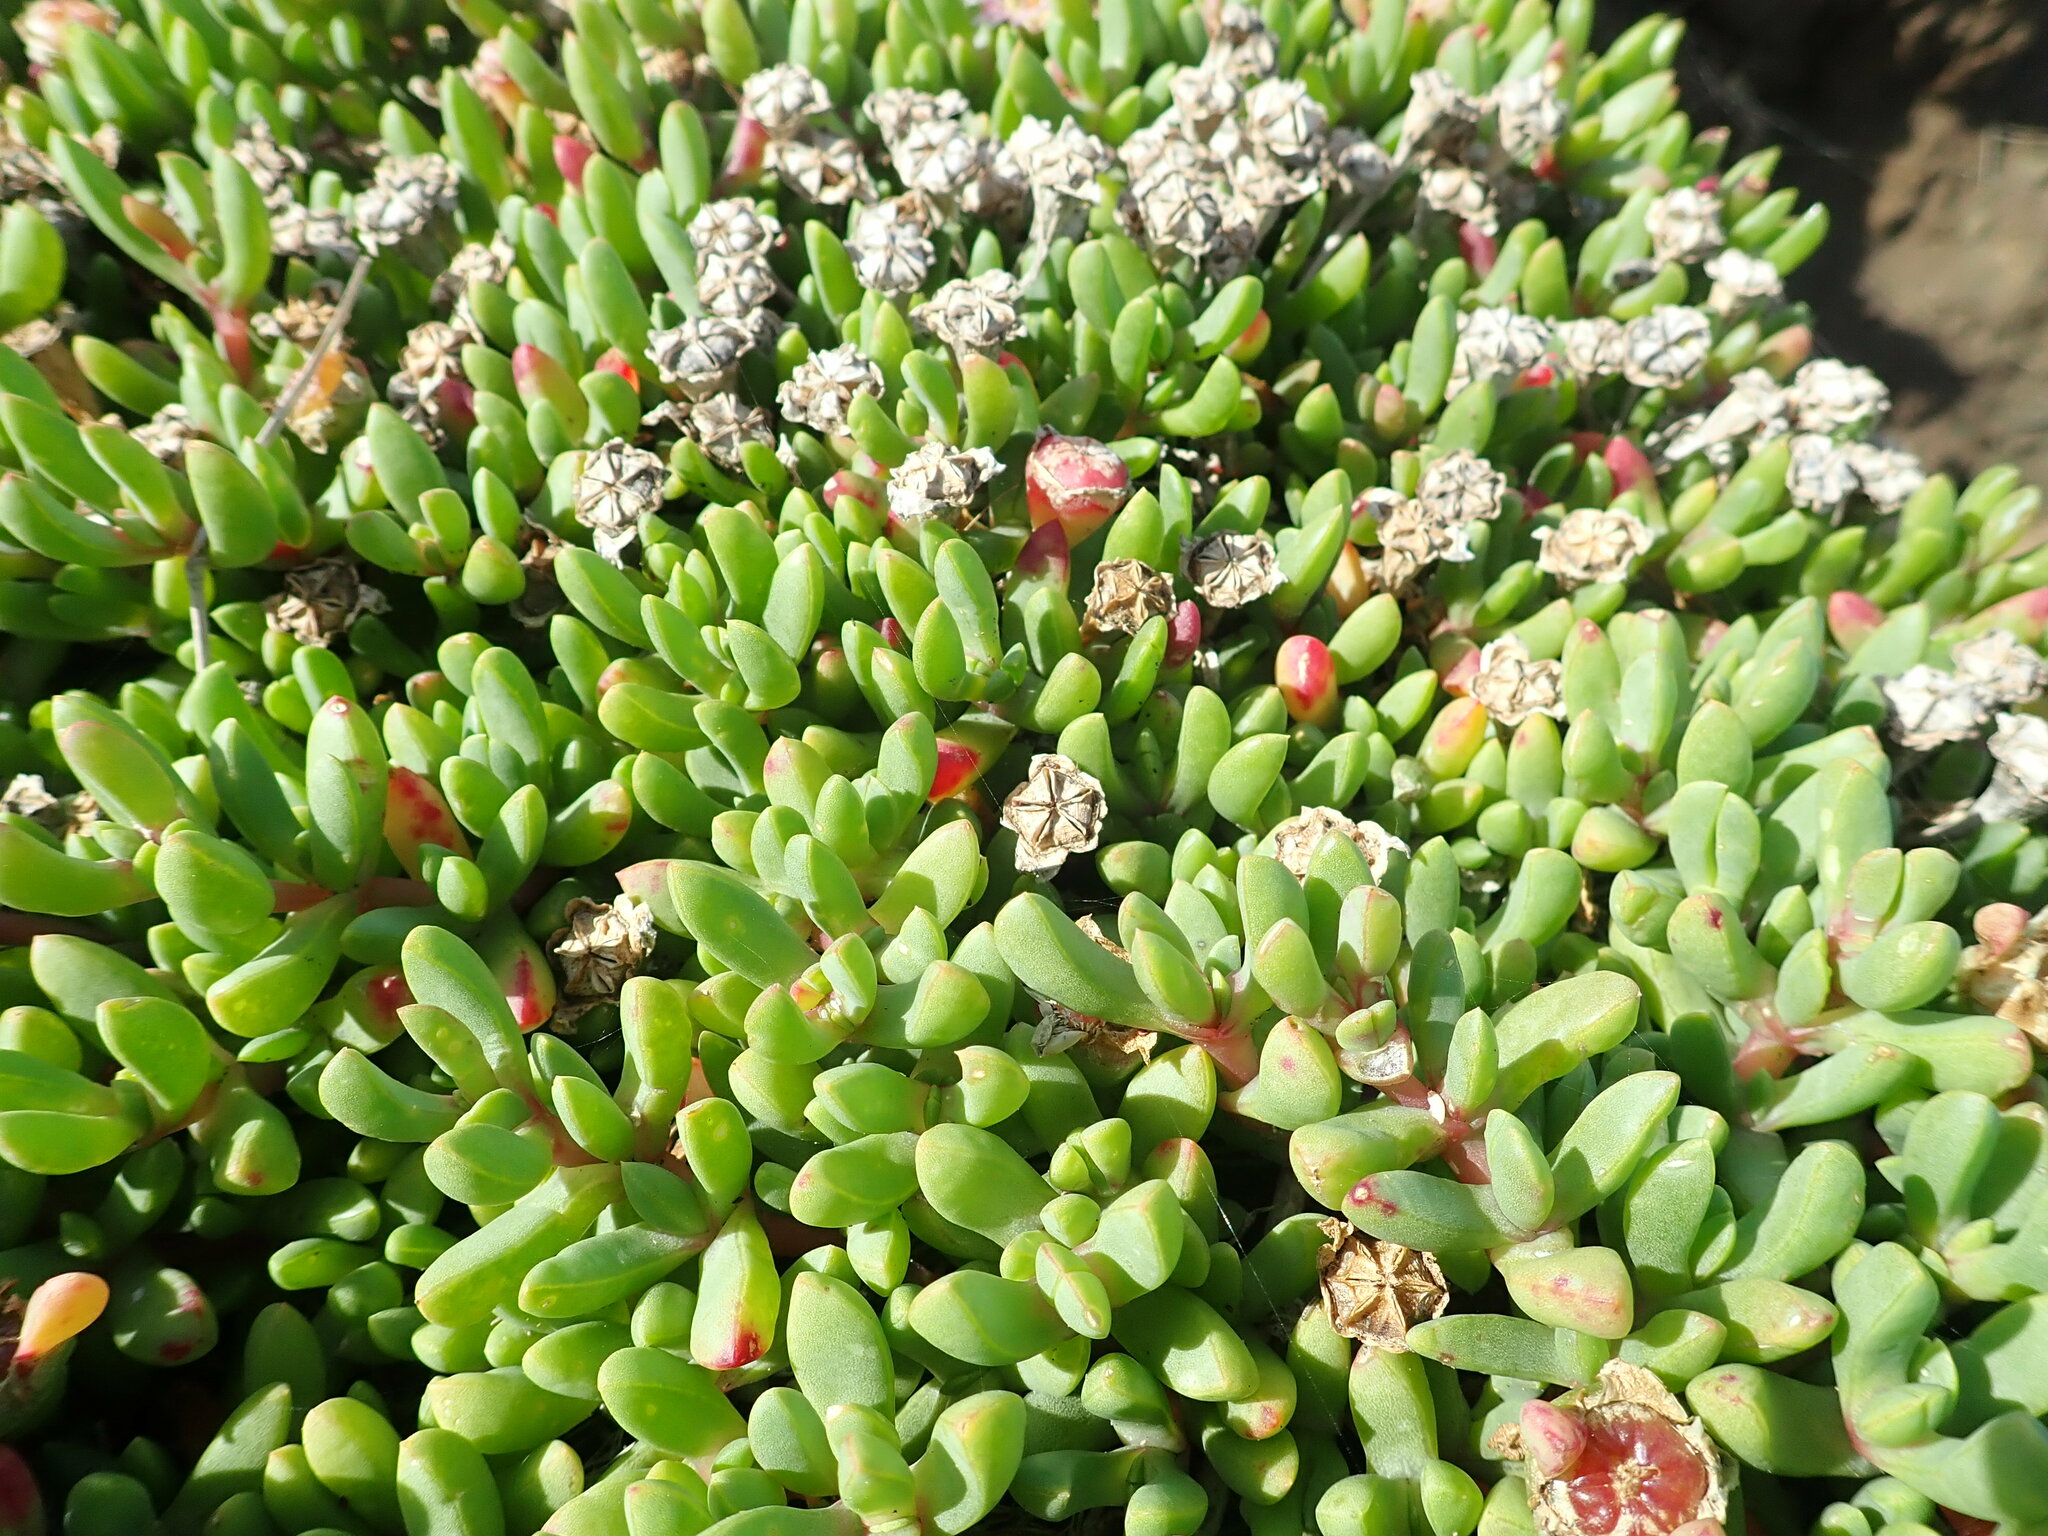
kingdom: Plantae
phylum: Tracheophyta
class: Magnoliopsida
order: Caryophyllales
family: Aizoaceae
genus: Disphyma
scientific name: Disphyma australe
